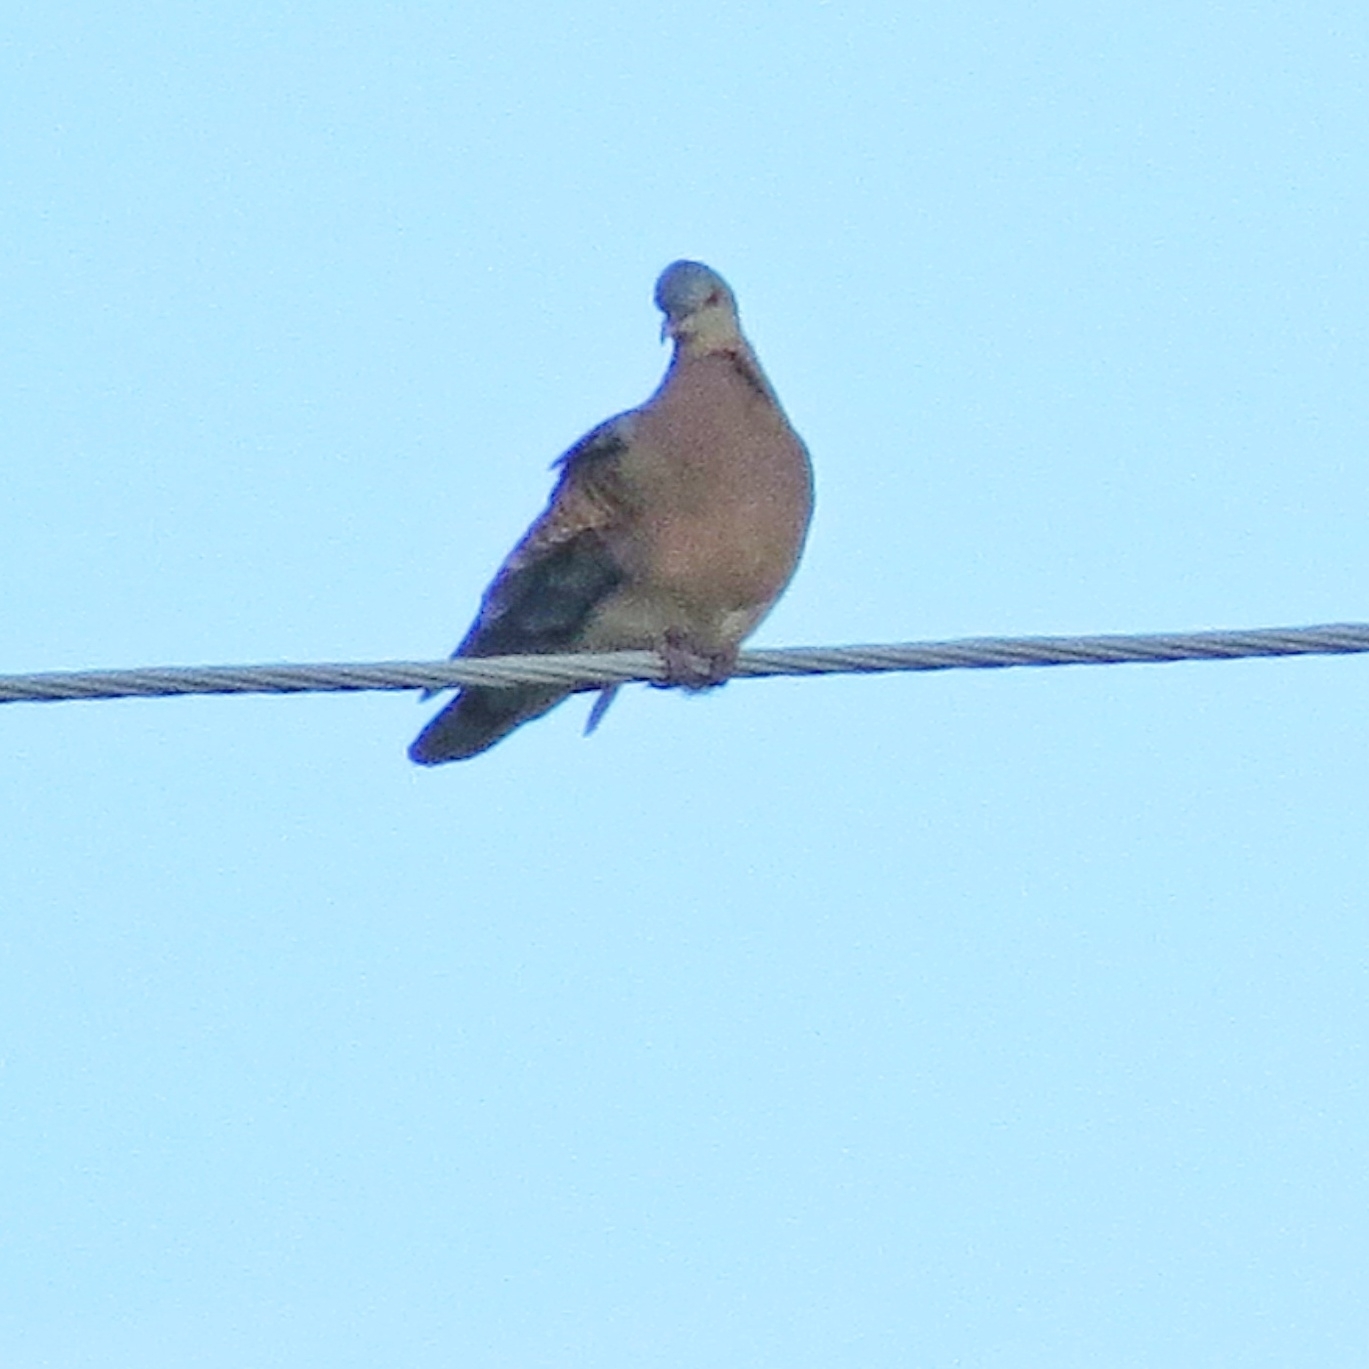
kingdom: Animalia
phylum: Chordata
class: Aves
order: Columbiformes
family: Columbidae
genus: Streptopelia
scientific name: Streptopelia orientalis
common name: Oriental turtle dove
